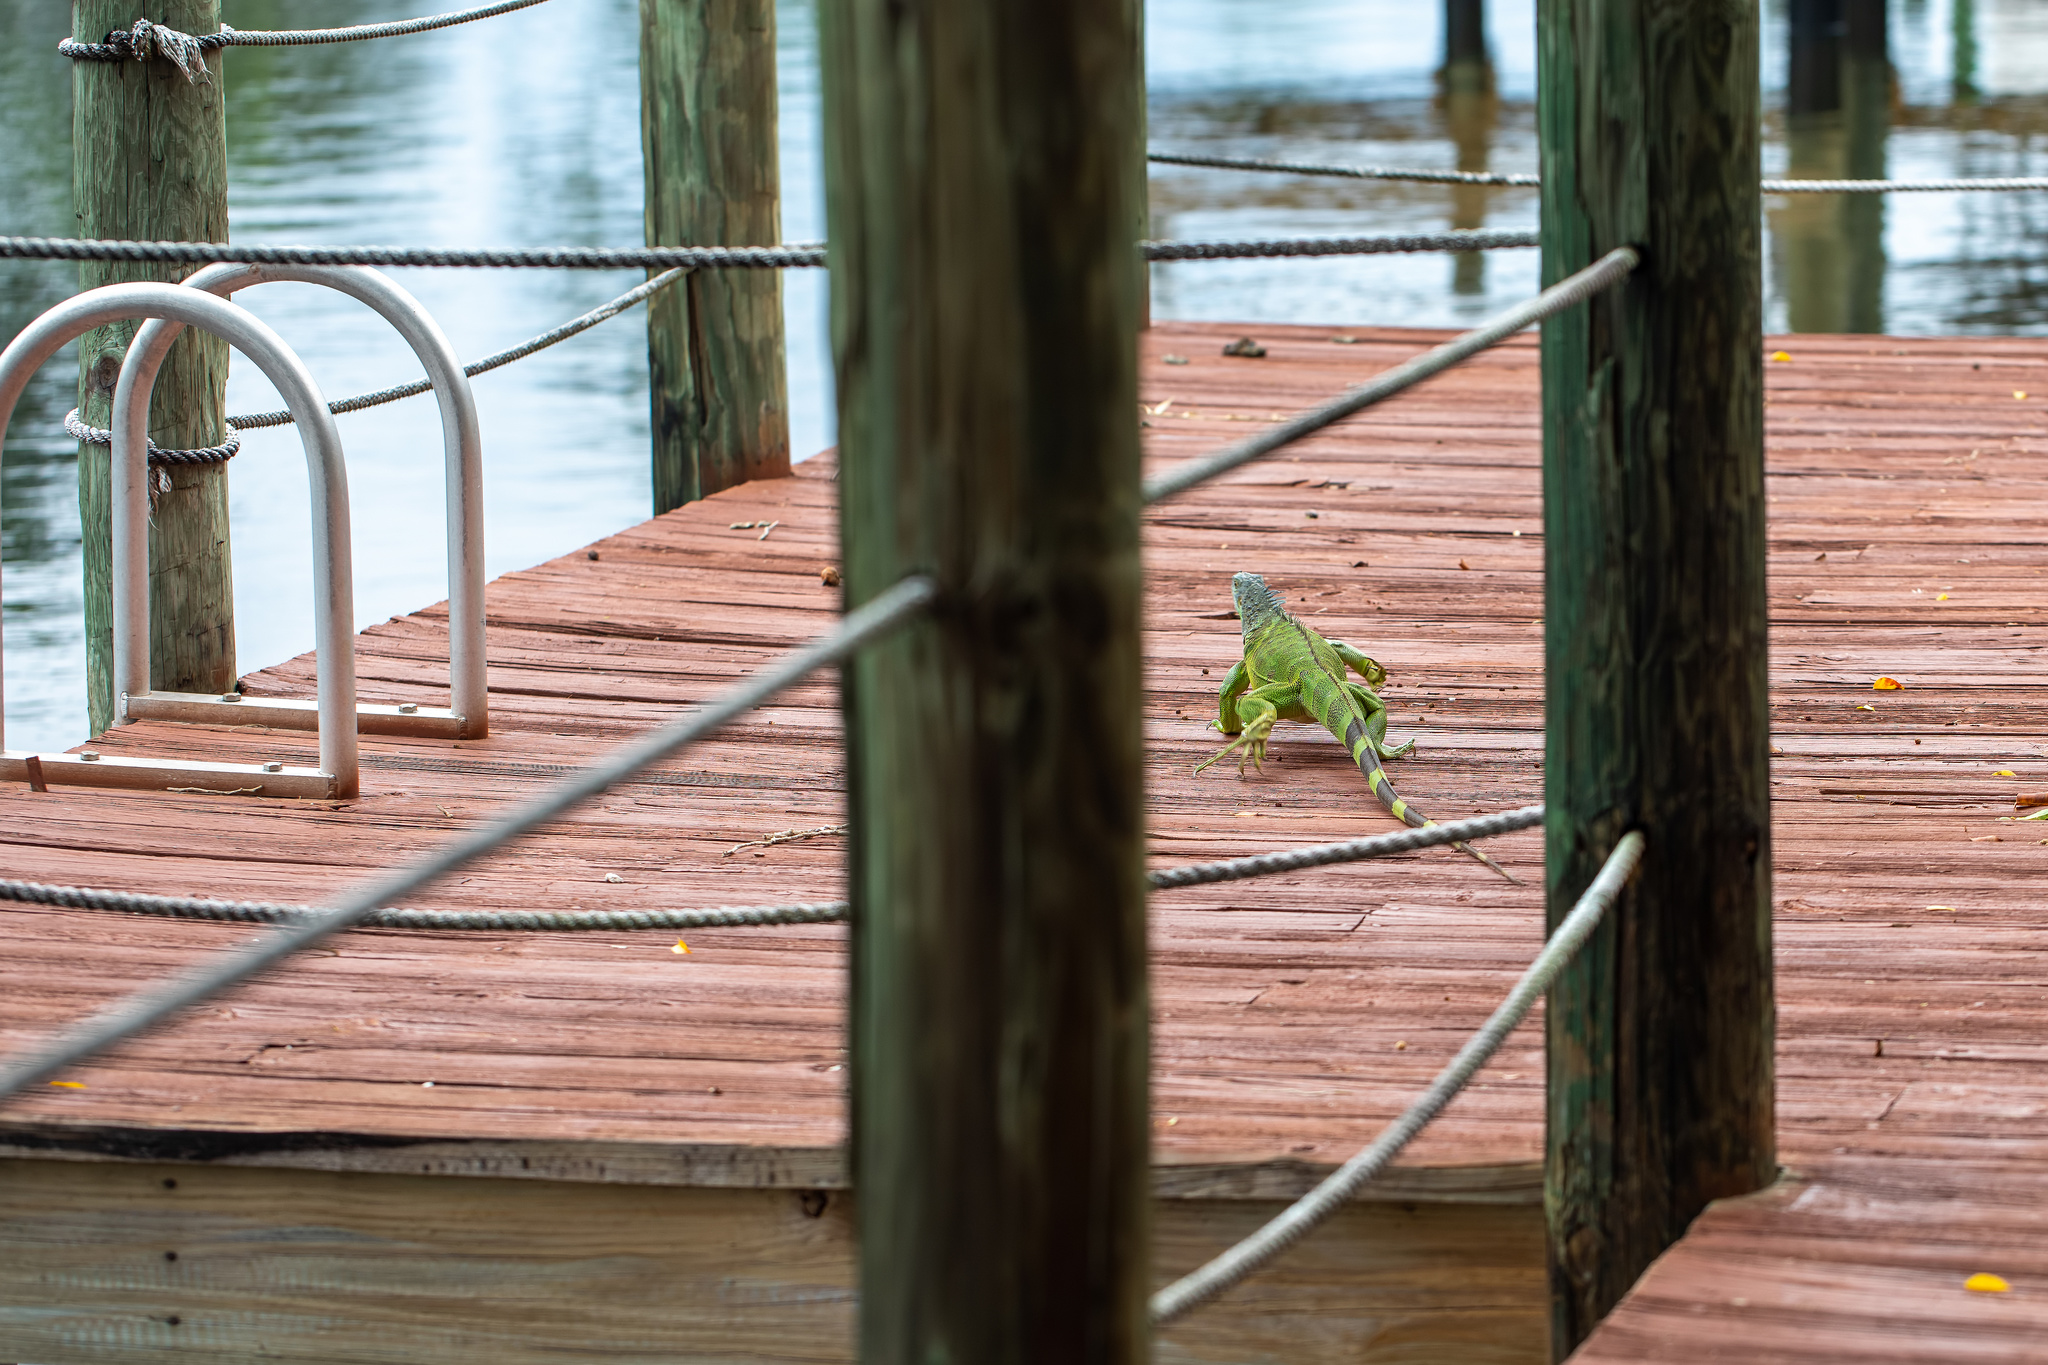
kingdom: Animalia
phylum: Chordata
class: Squamata
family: Iguanidae
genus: Iguana
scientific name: Iguana iguana
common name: Green iguana
